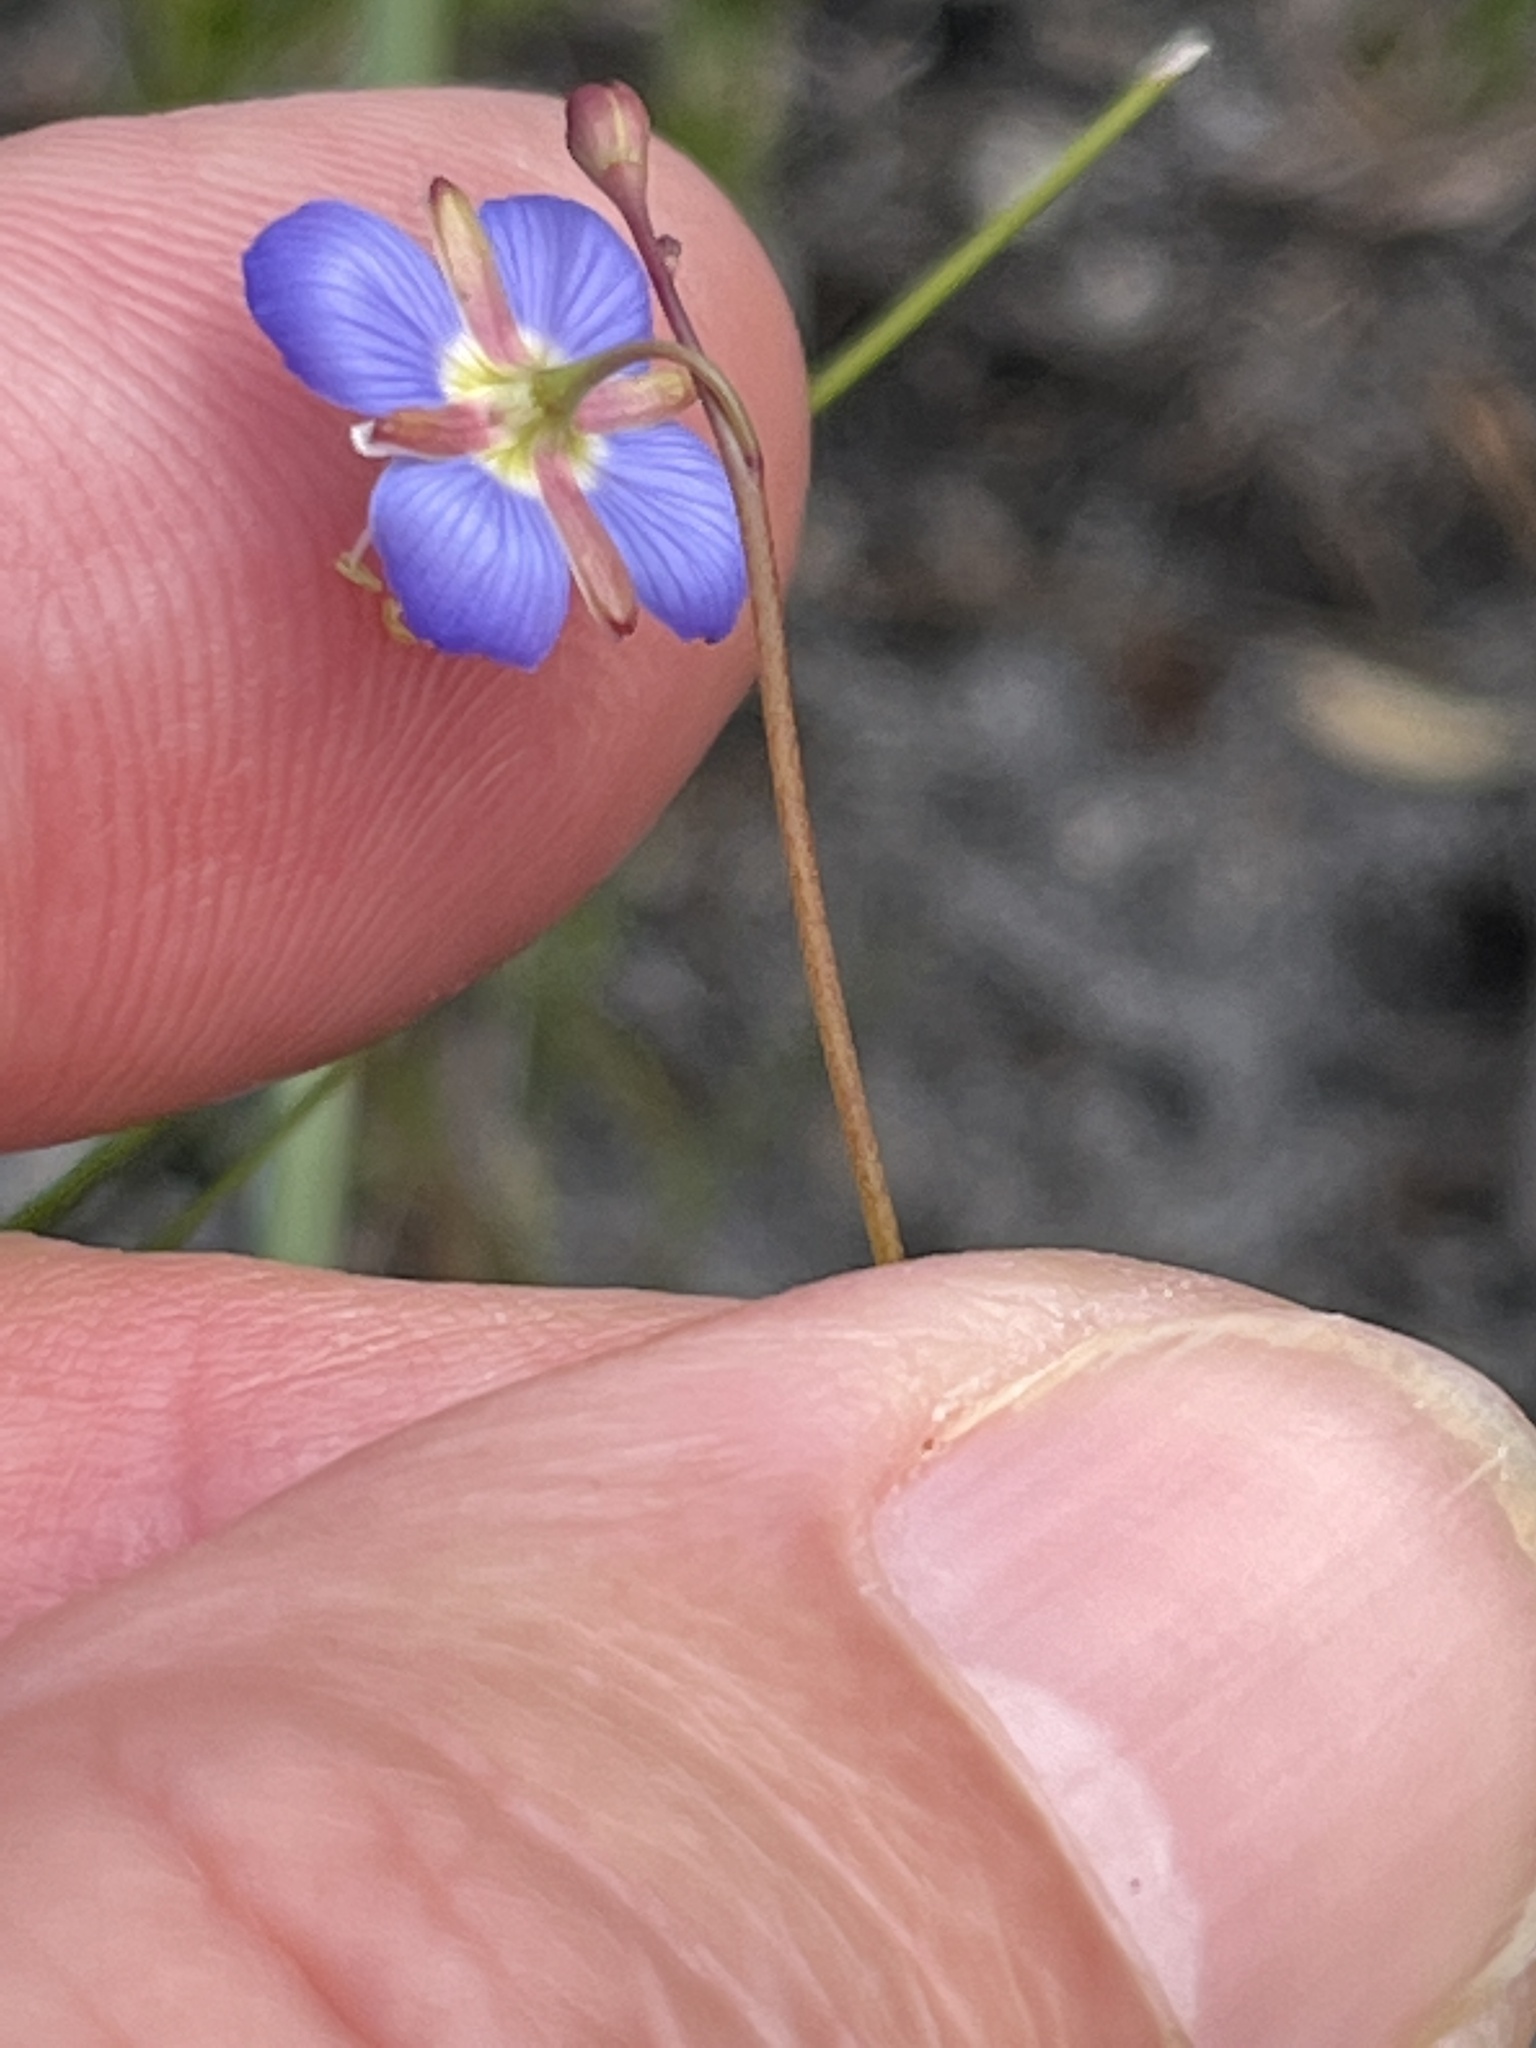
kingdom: Plantae
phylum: Tracheophyta
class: Magnoliopsida
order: Brassicales
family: Brassicaceae
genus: Heliophila
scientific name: Heliophila adpressa
